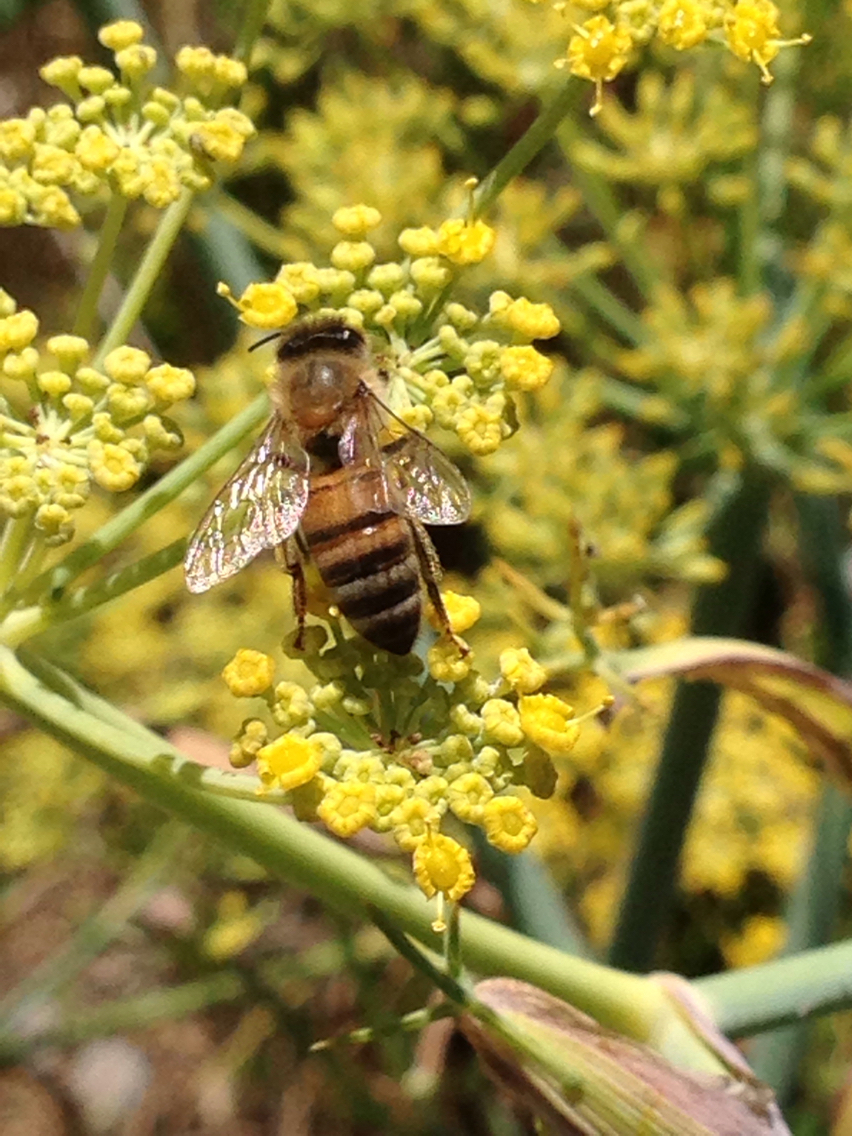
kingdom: Animalia
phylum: Arthropoda
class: Insecta
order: Hymenoptera
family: Apidae
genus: Apis
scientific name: Apis mellifera
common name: Honey bee
